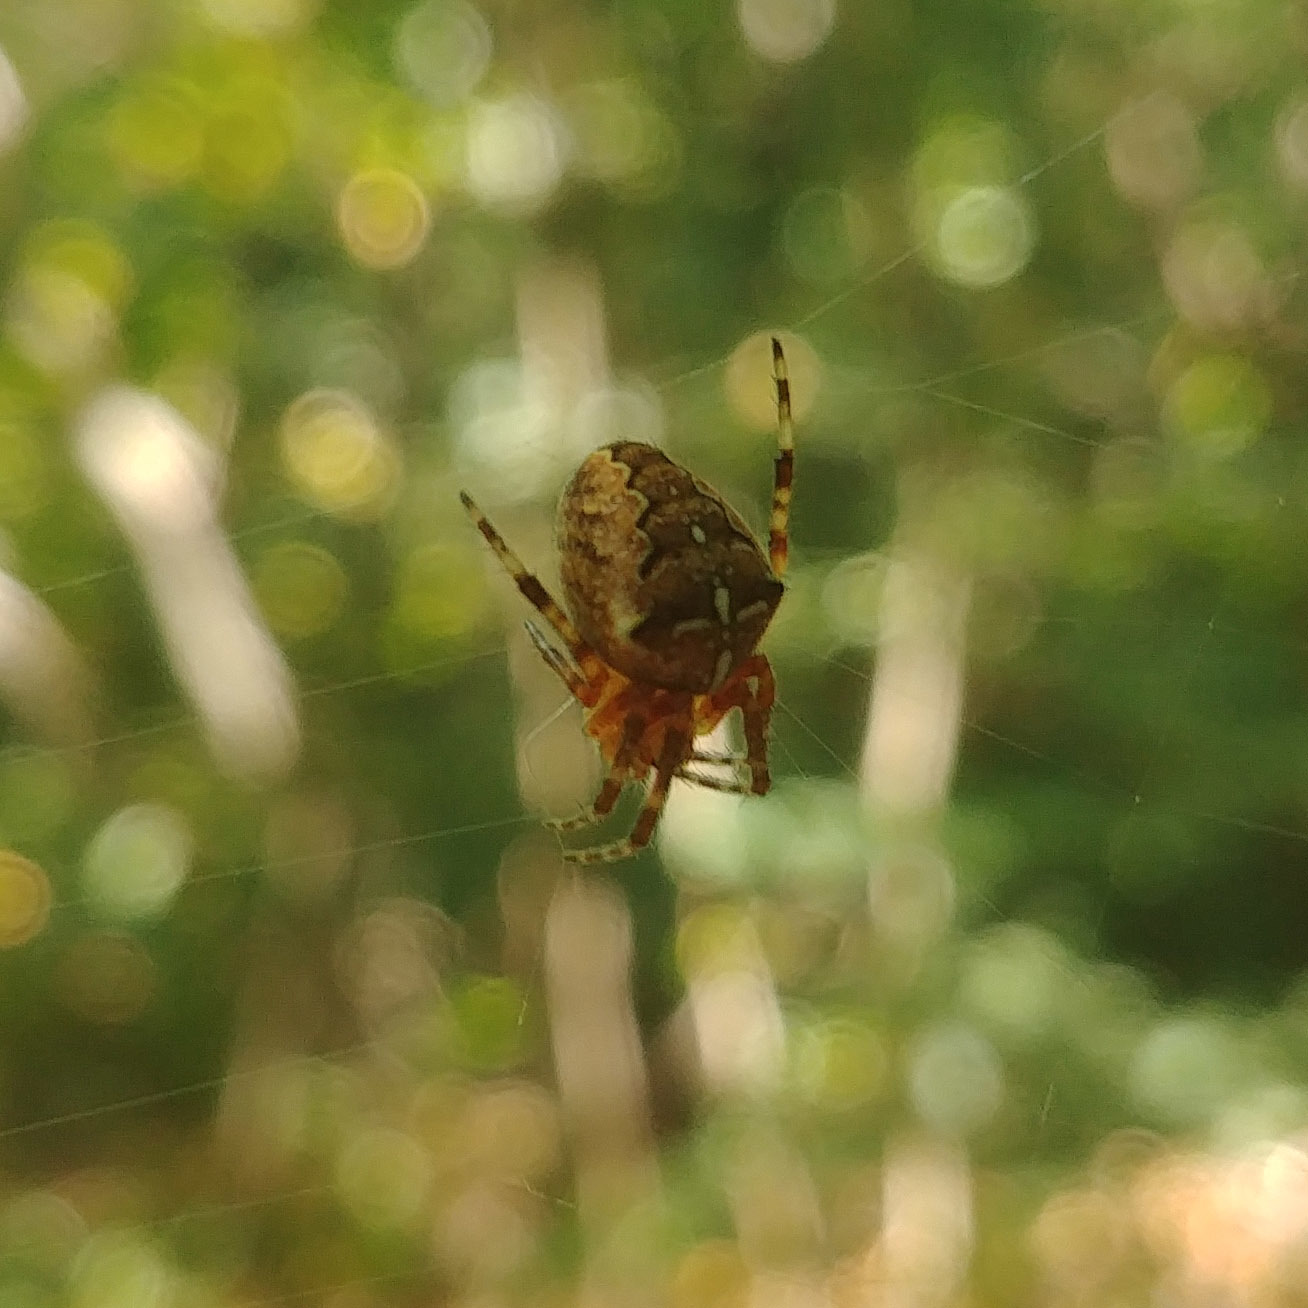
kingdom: Animalia
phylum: Arthropoda
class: Arachnida
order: Araneae
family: Araneidae
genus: Araneus
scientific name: Araneus diadematus
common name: Cross orbweaver
